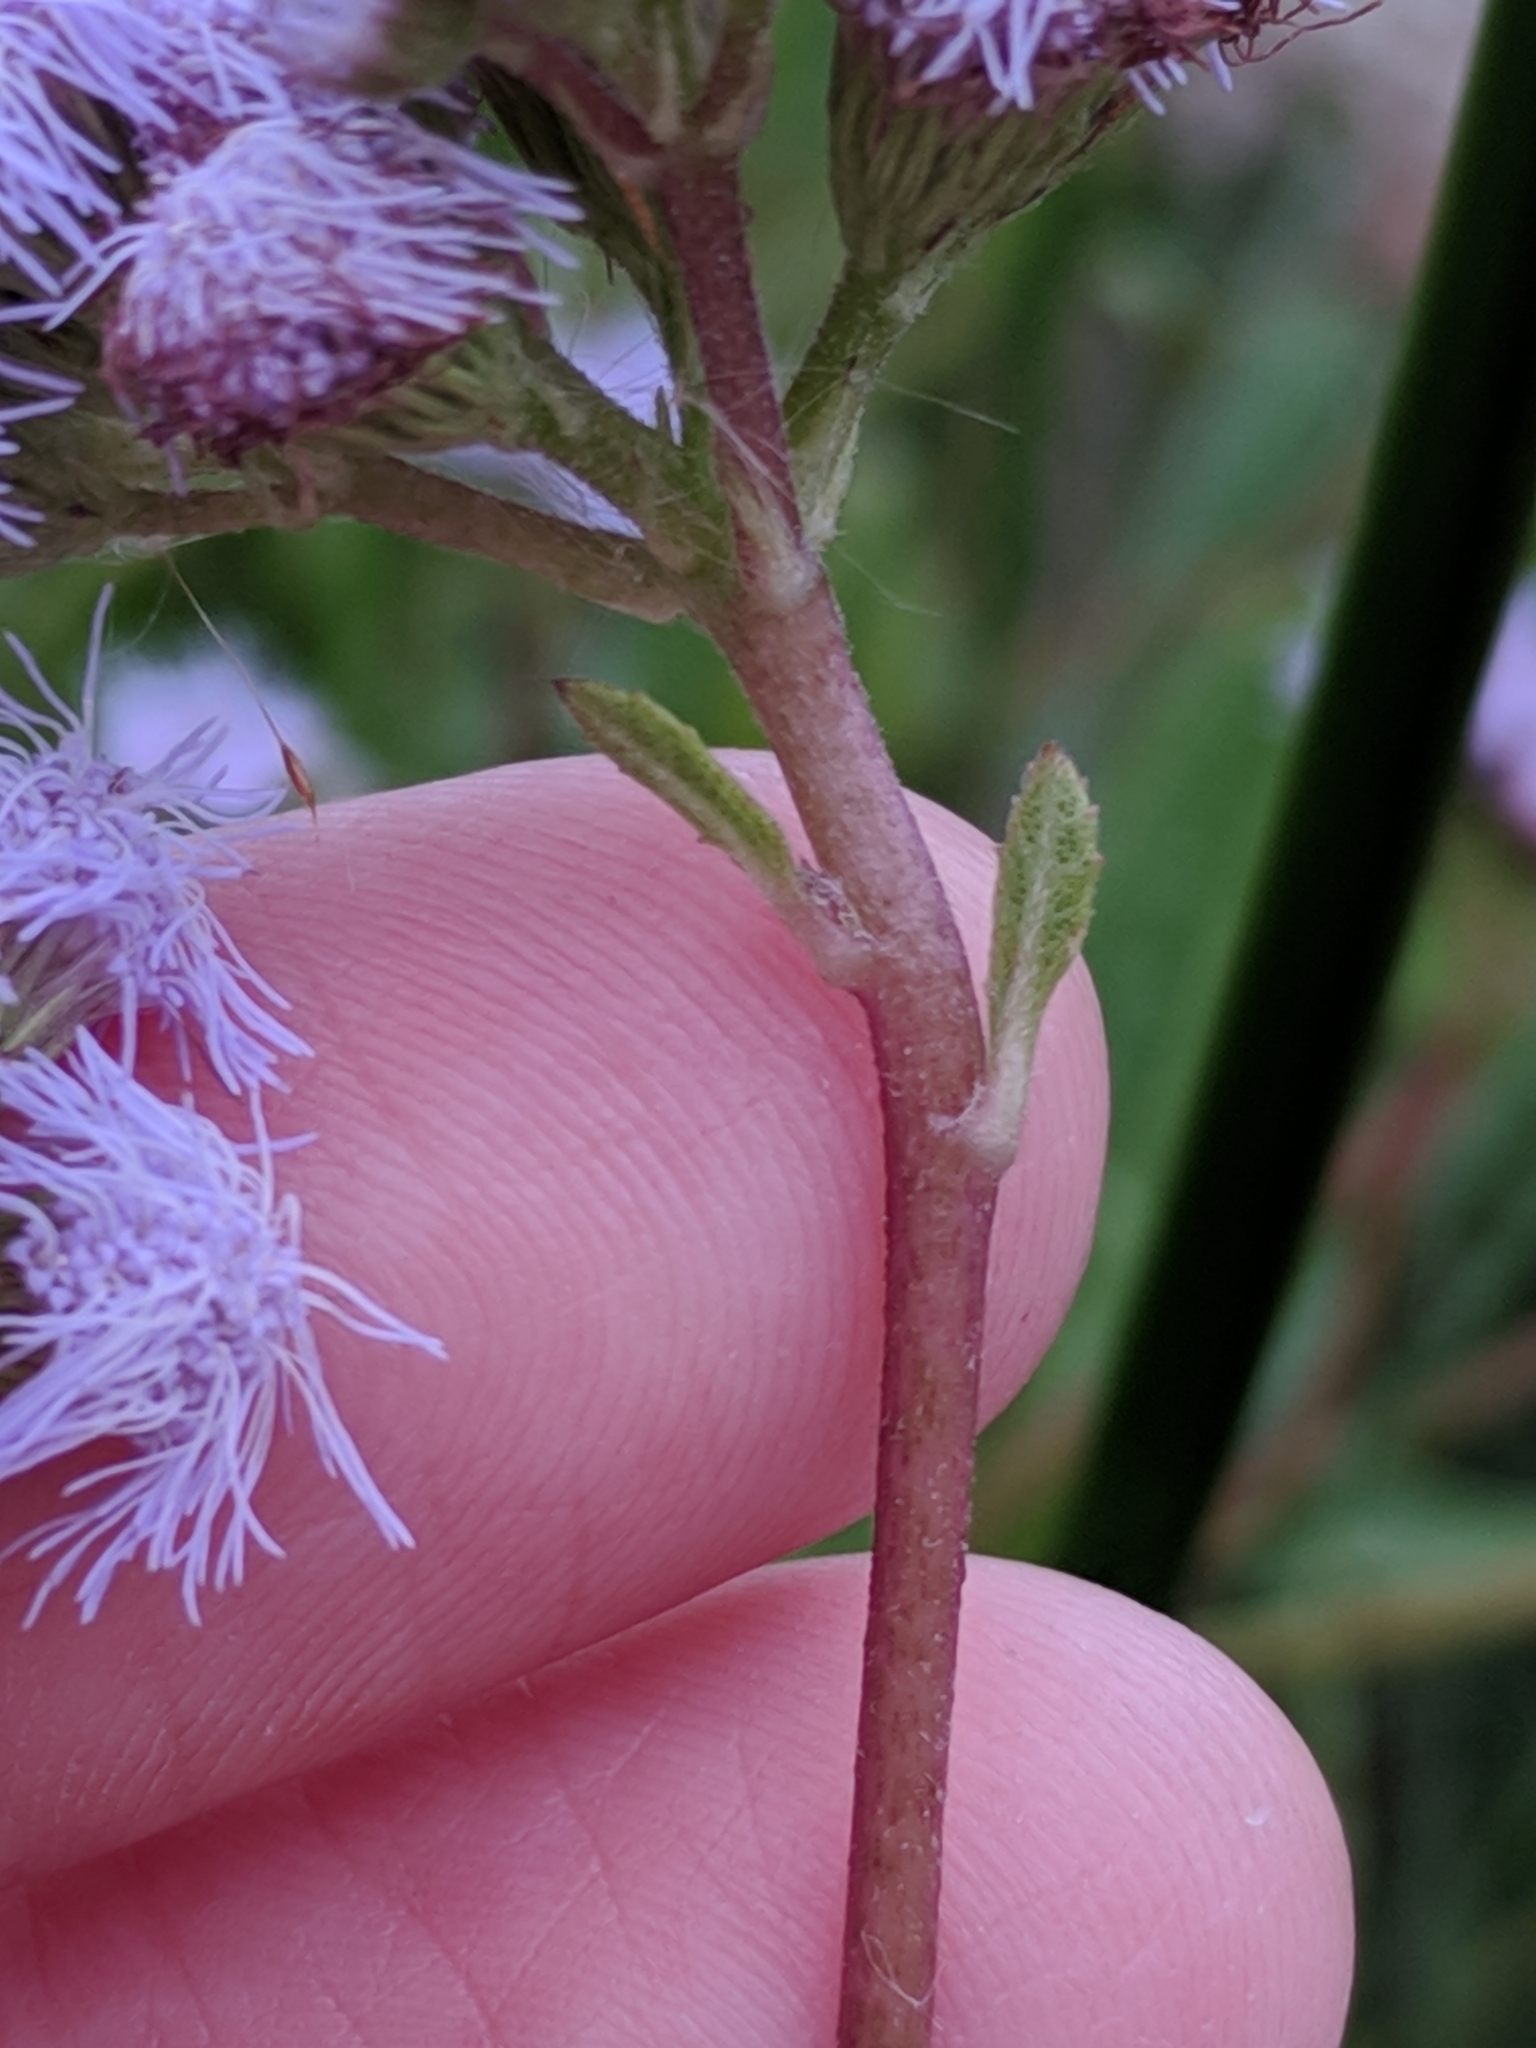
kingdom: Plantae
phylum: Tracheophyta
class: Magnoliopsida
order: Asterales
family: Asteraceae
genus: Conoclinium
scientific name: Conoclinium betonicifolium
